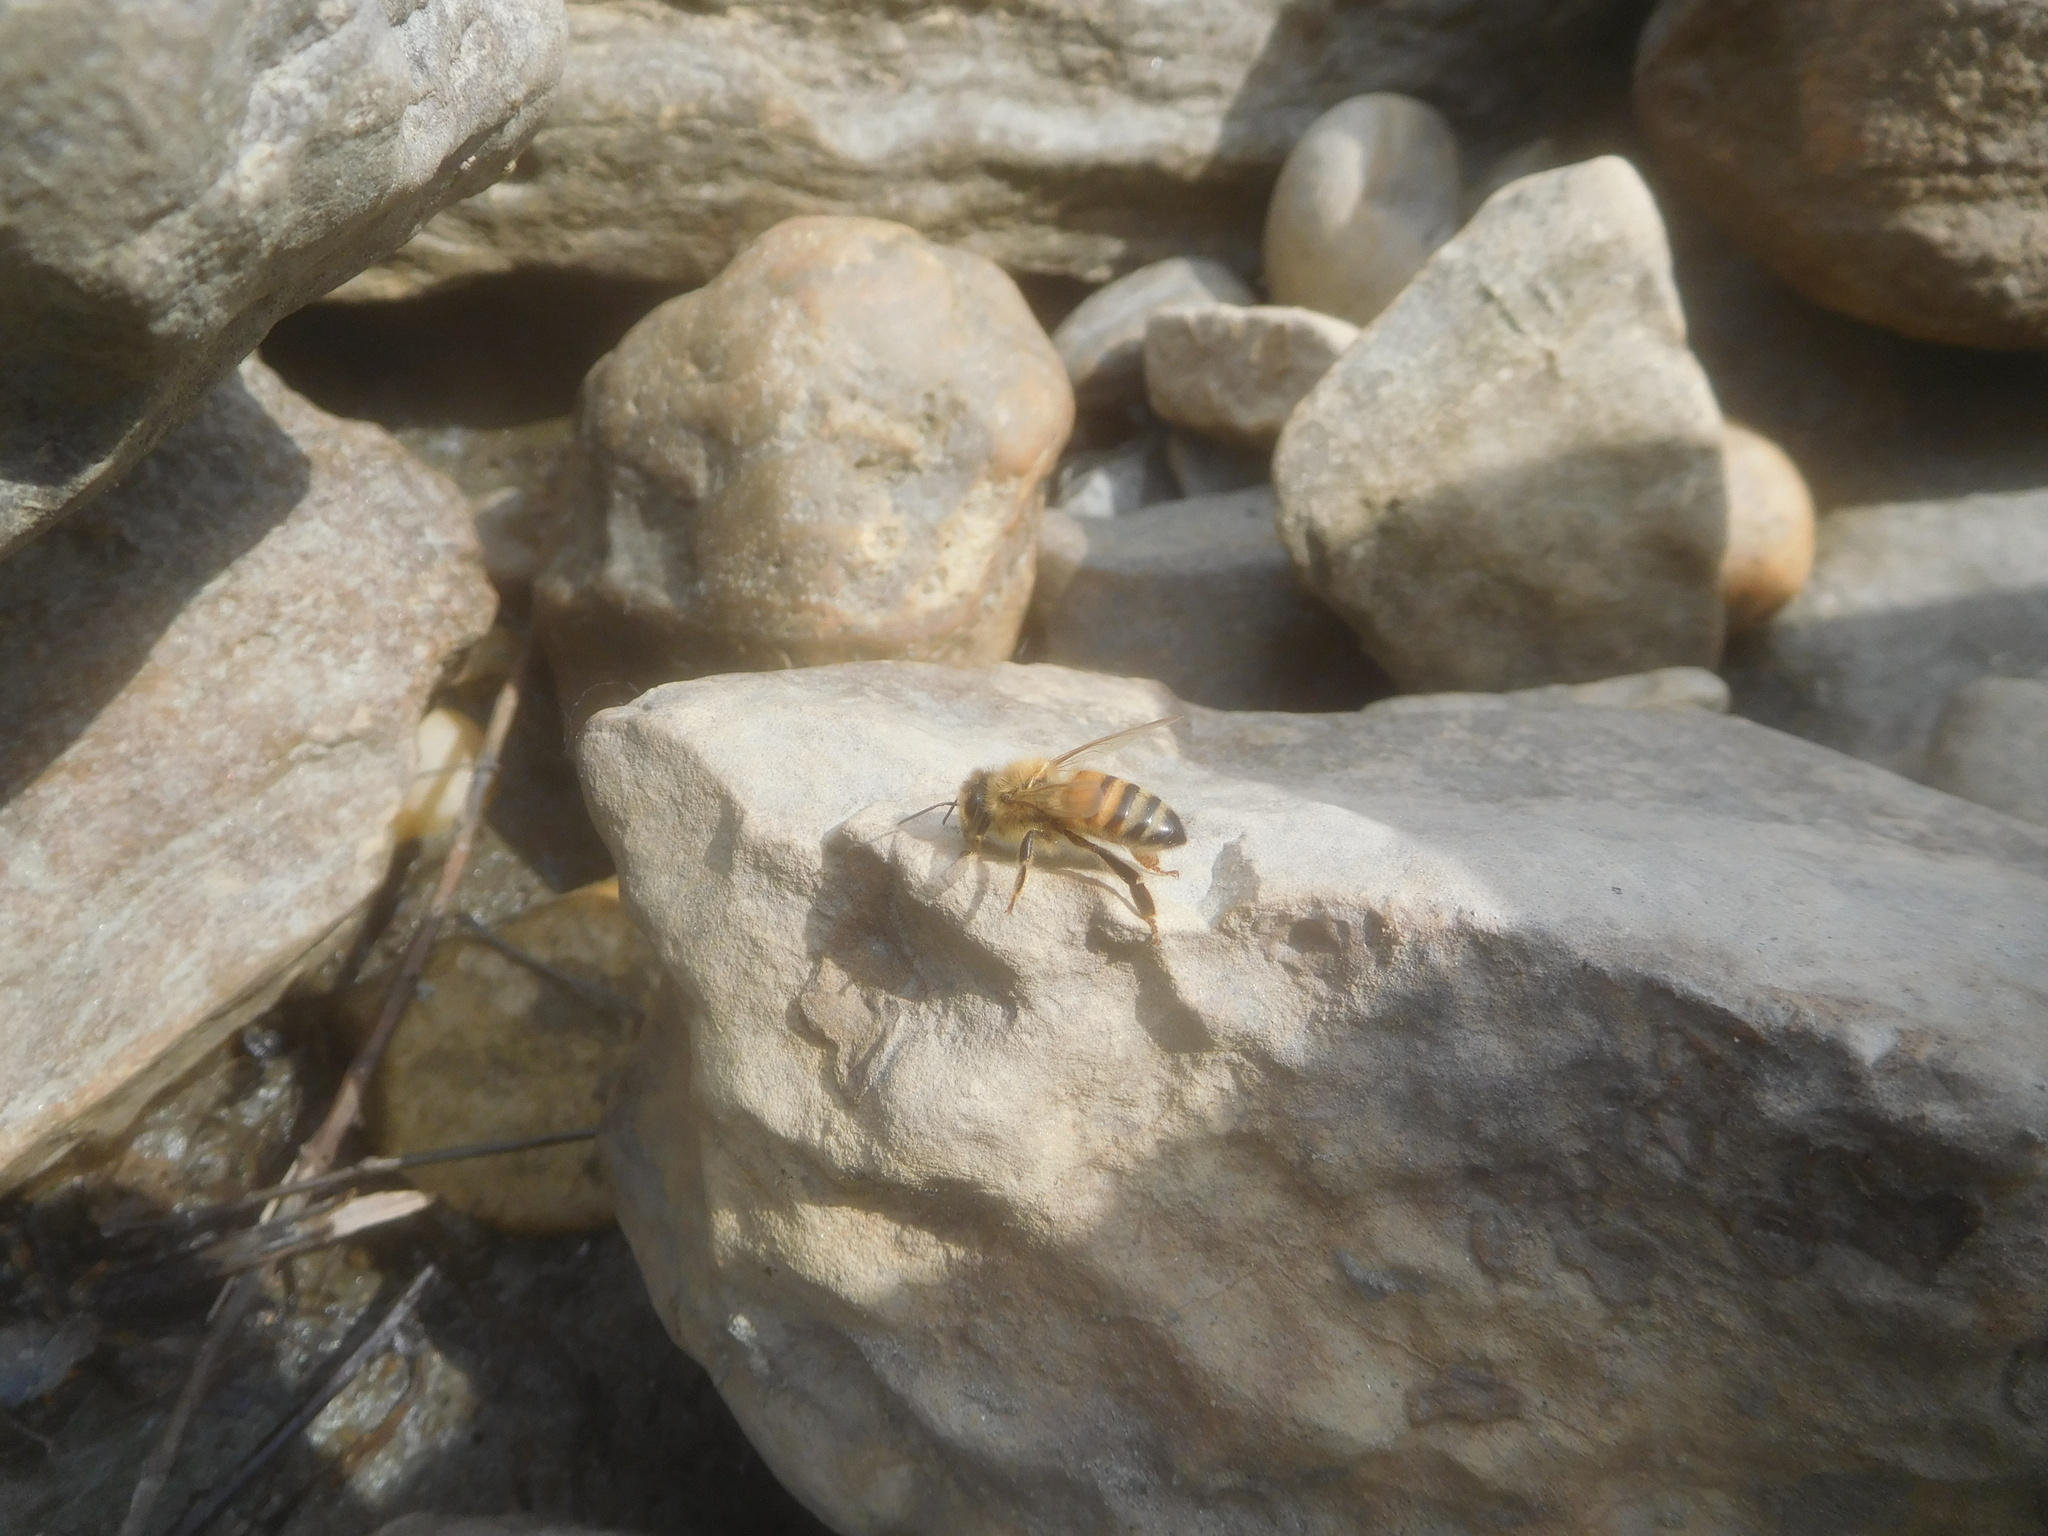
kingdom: Animalia
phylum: Arthropoda
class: Insecta
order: Hymenoptera
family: Apidae
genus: Apis
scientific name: Apis mellifera
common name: Honey bee
